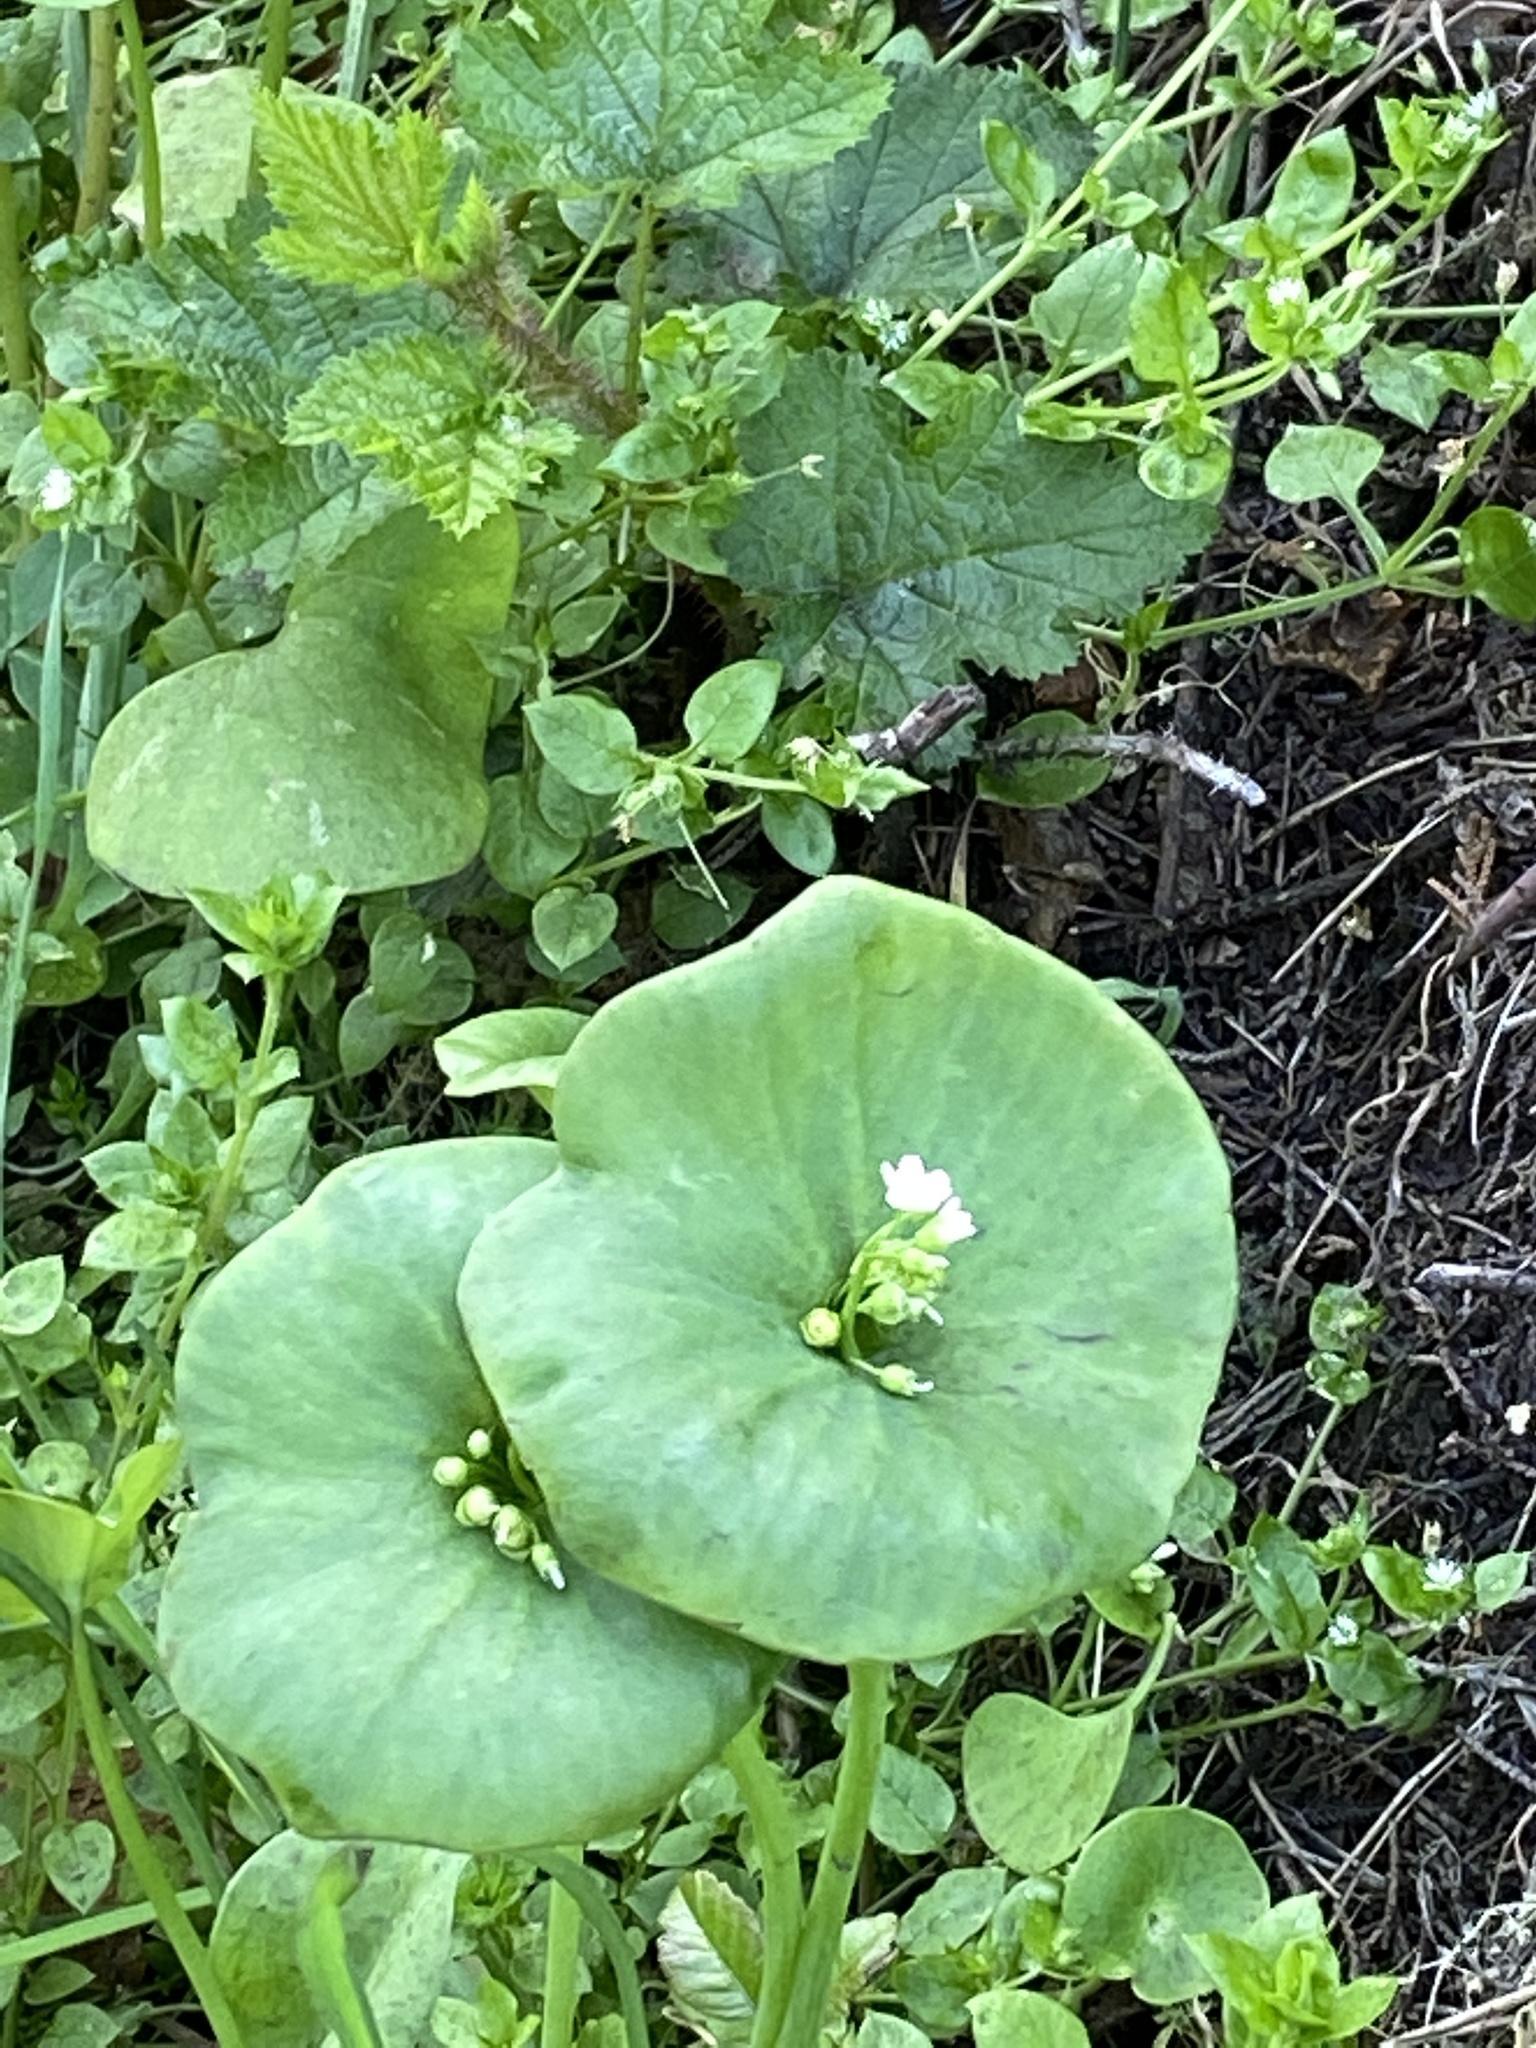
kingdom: Plantae
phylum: Tracheophyta
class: Magnoliopsida
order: Caryophyllales
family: Montiaceae
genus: Claytonia
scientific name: Claytonia perfoliata
